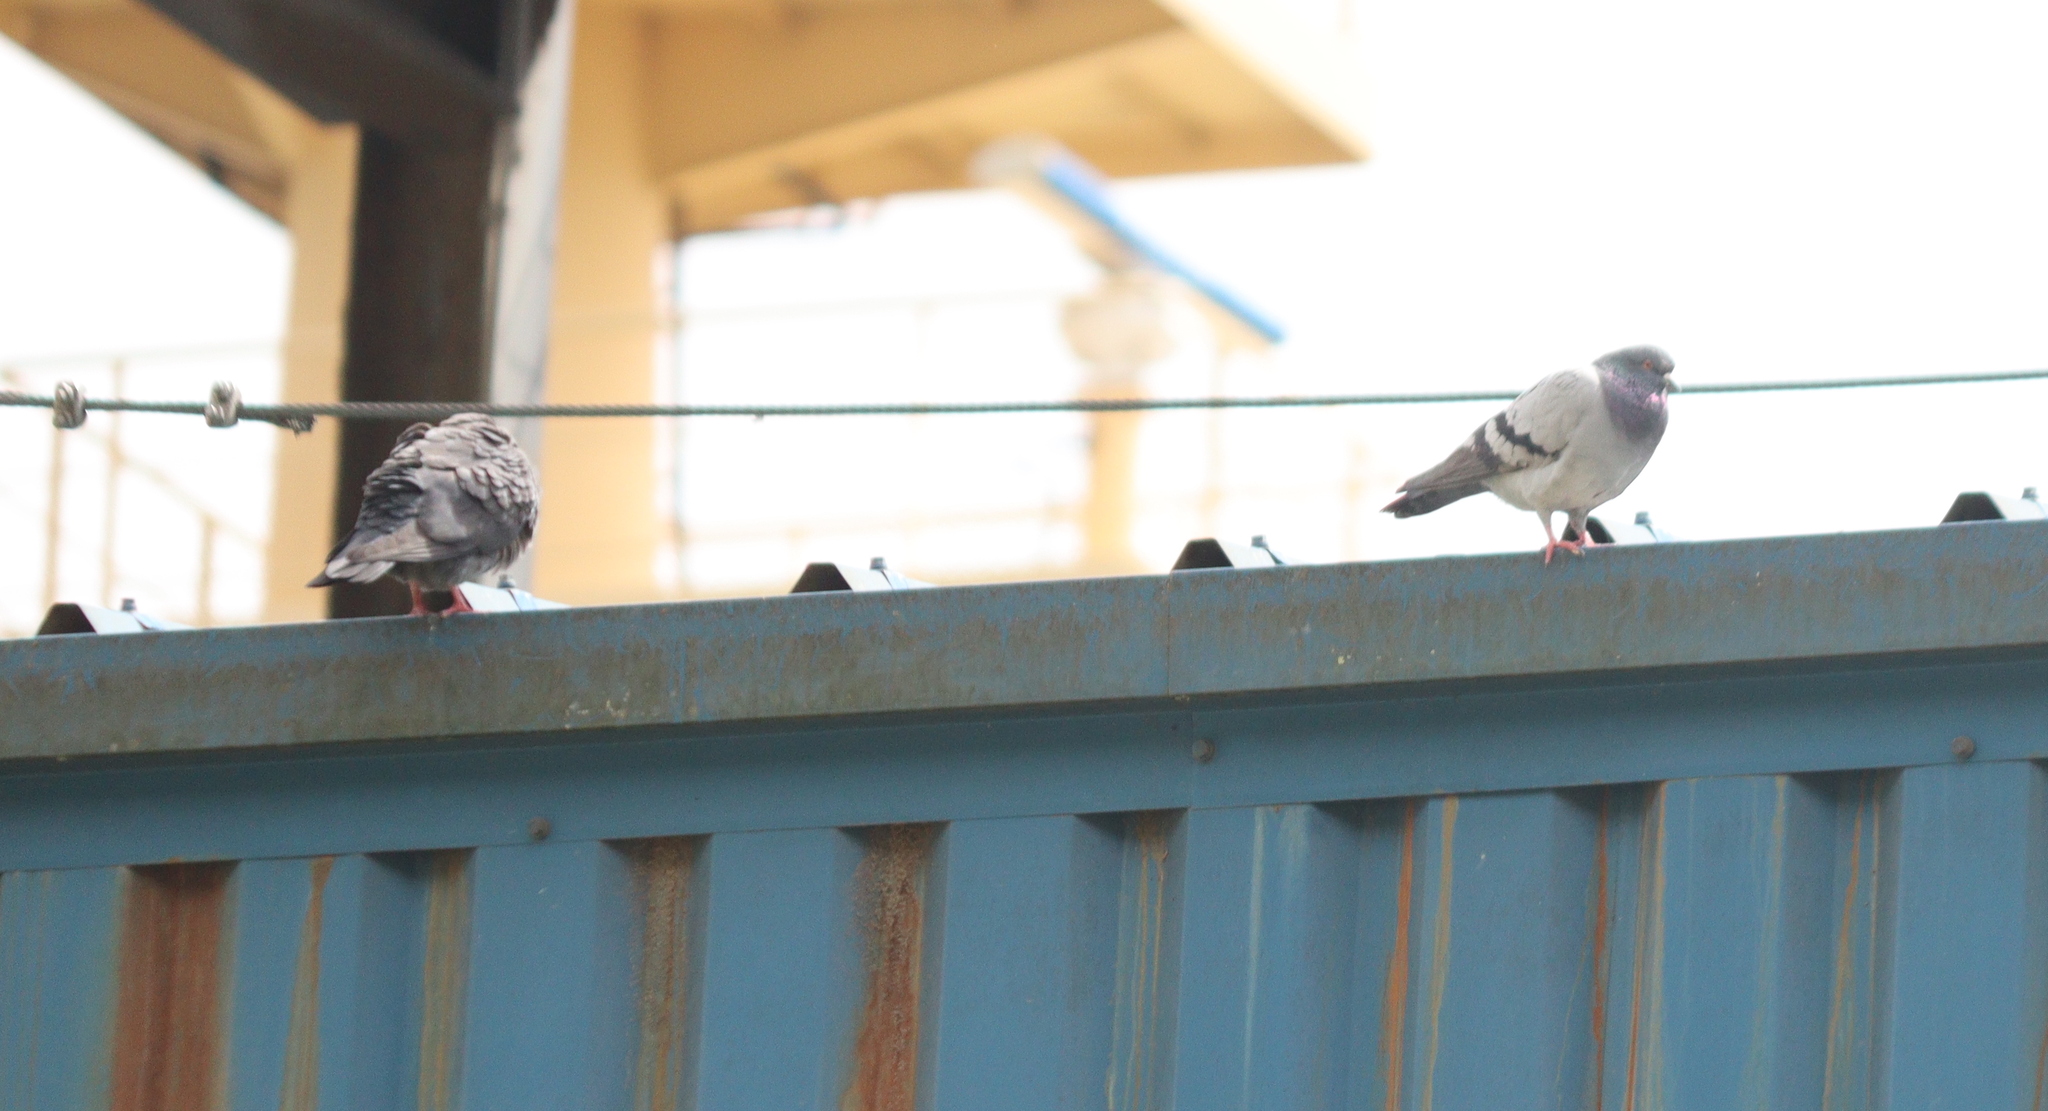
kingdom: Animalia
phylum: Chordata
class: Aves
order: Columbiformes
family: Columbidae
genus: Columba
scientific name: Columba livia
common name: Rock pigeon
